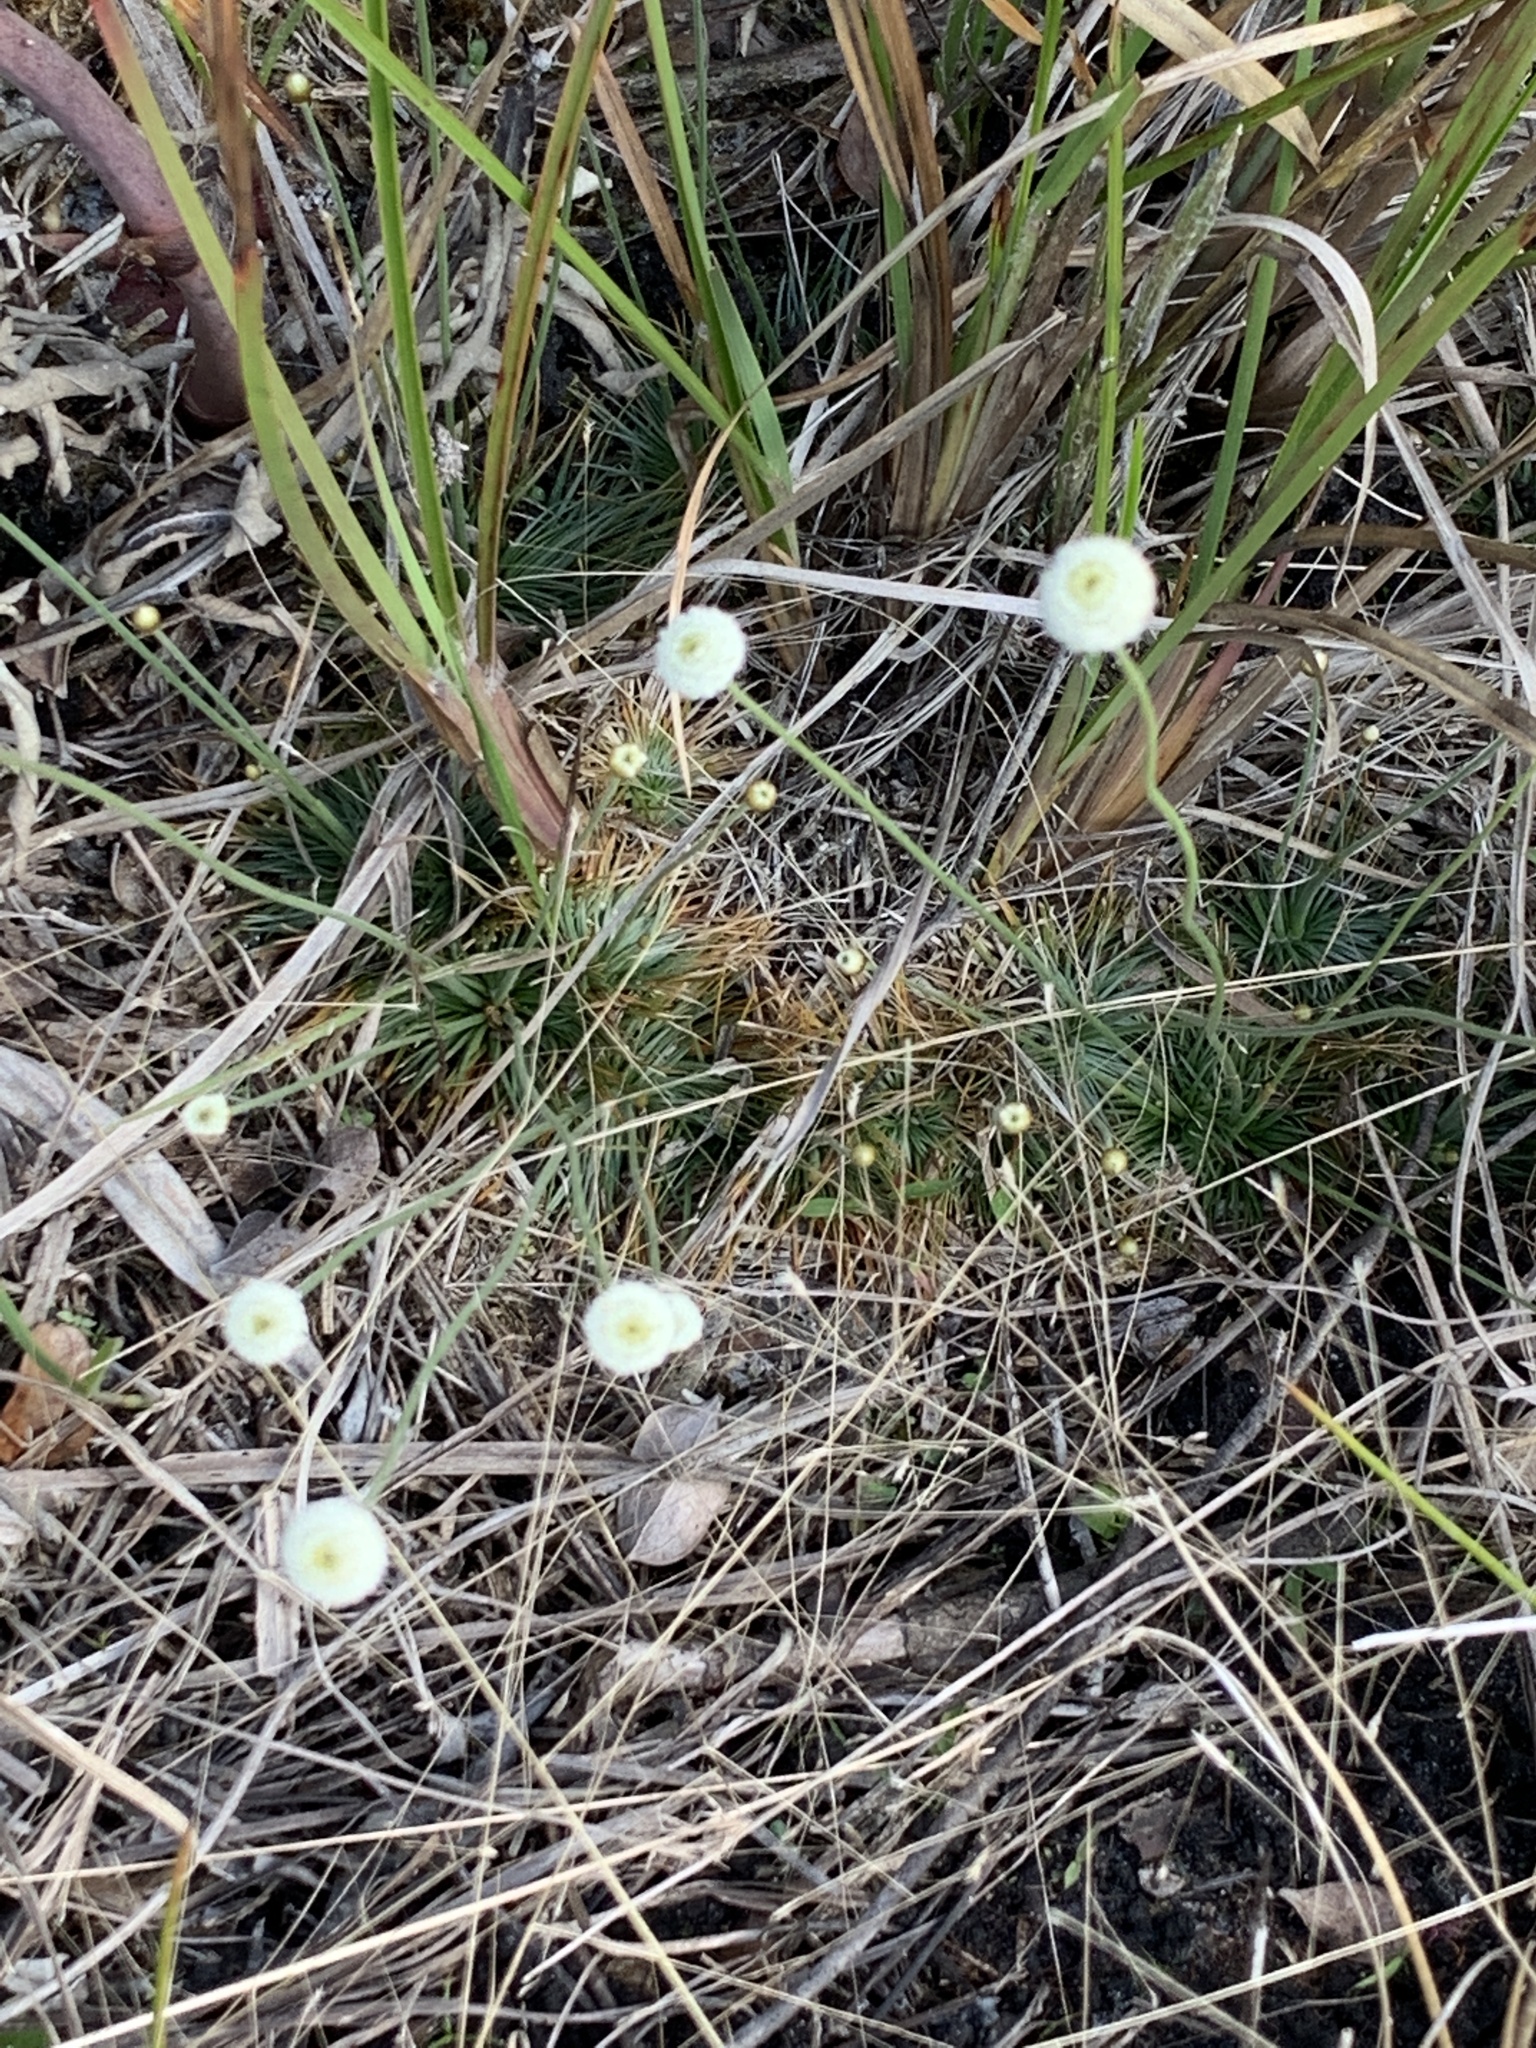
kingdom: Plantae
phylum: Tracheophyta
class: Liliopsida
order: Poales
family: Eriocaulaceae
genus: Syngonanthus
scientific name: Syngonanthus flavidulus
